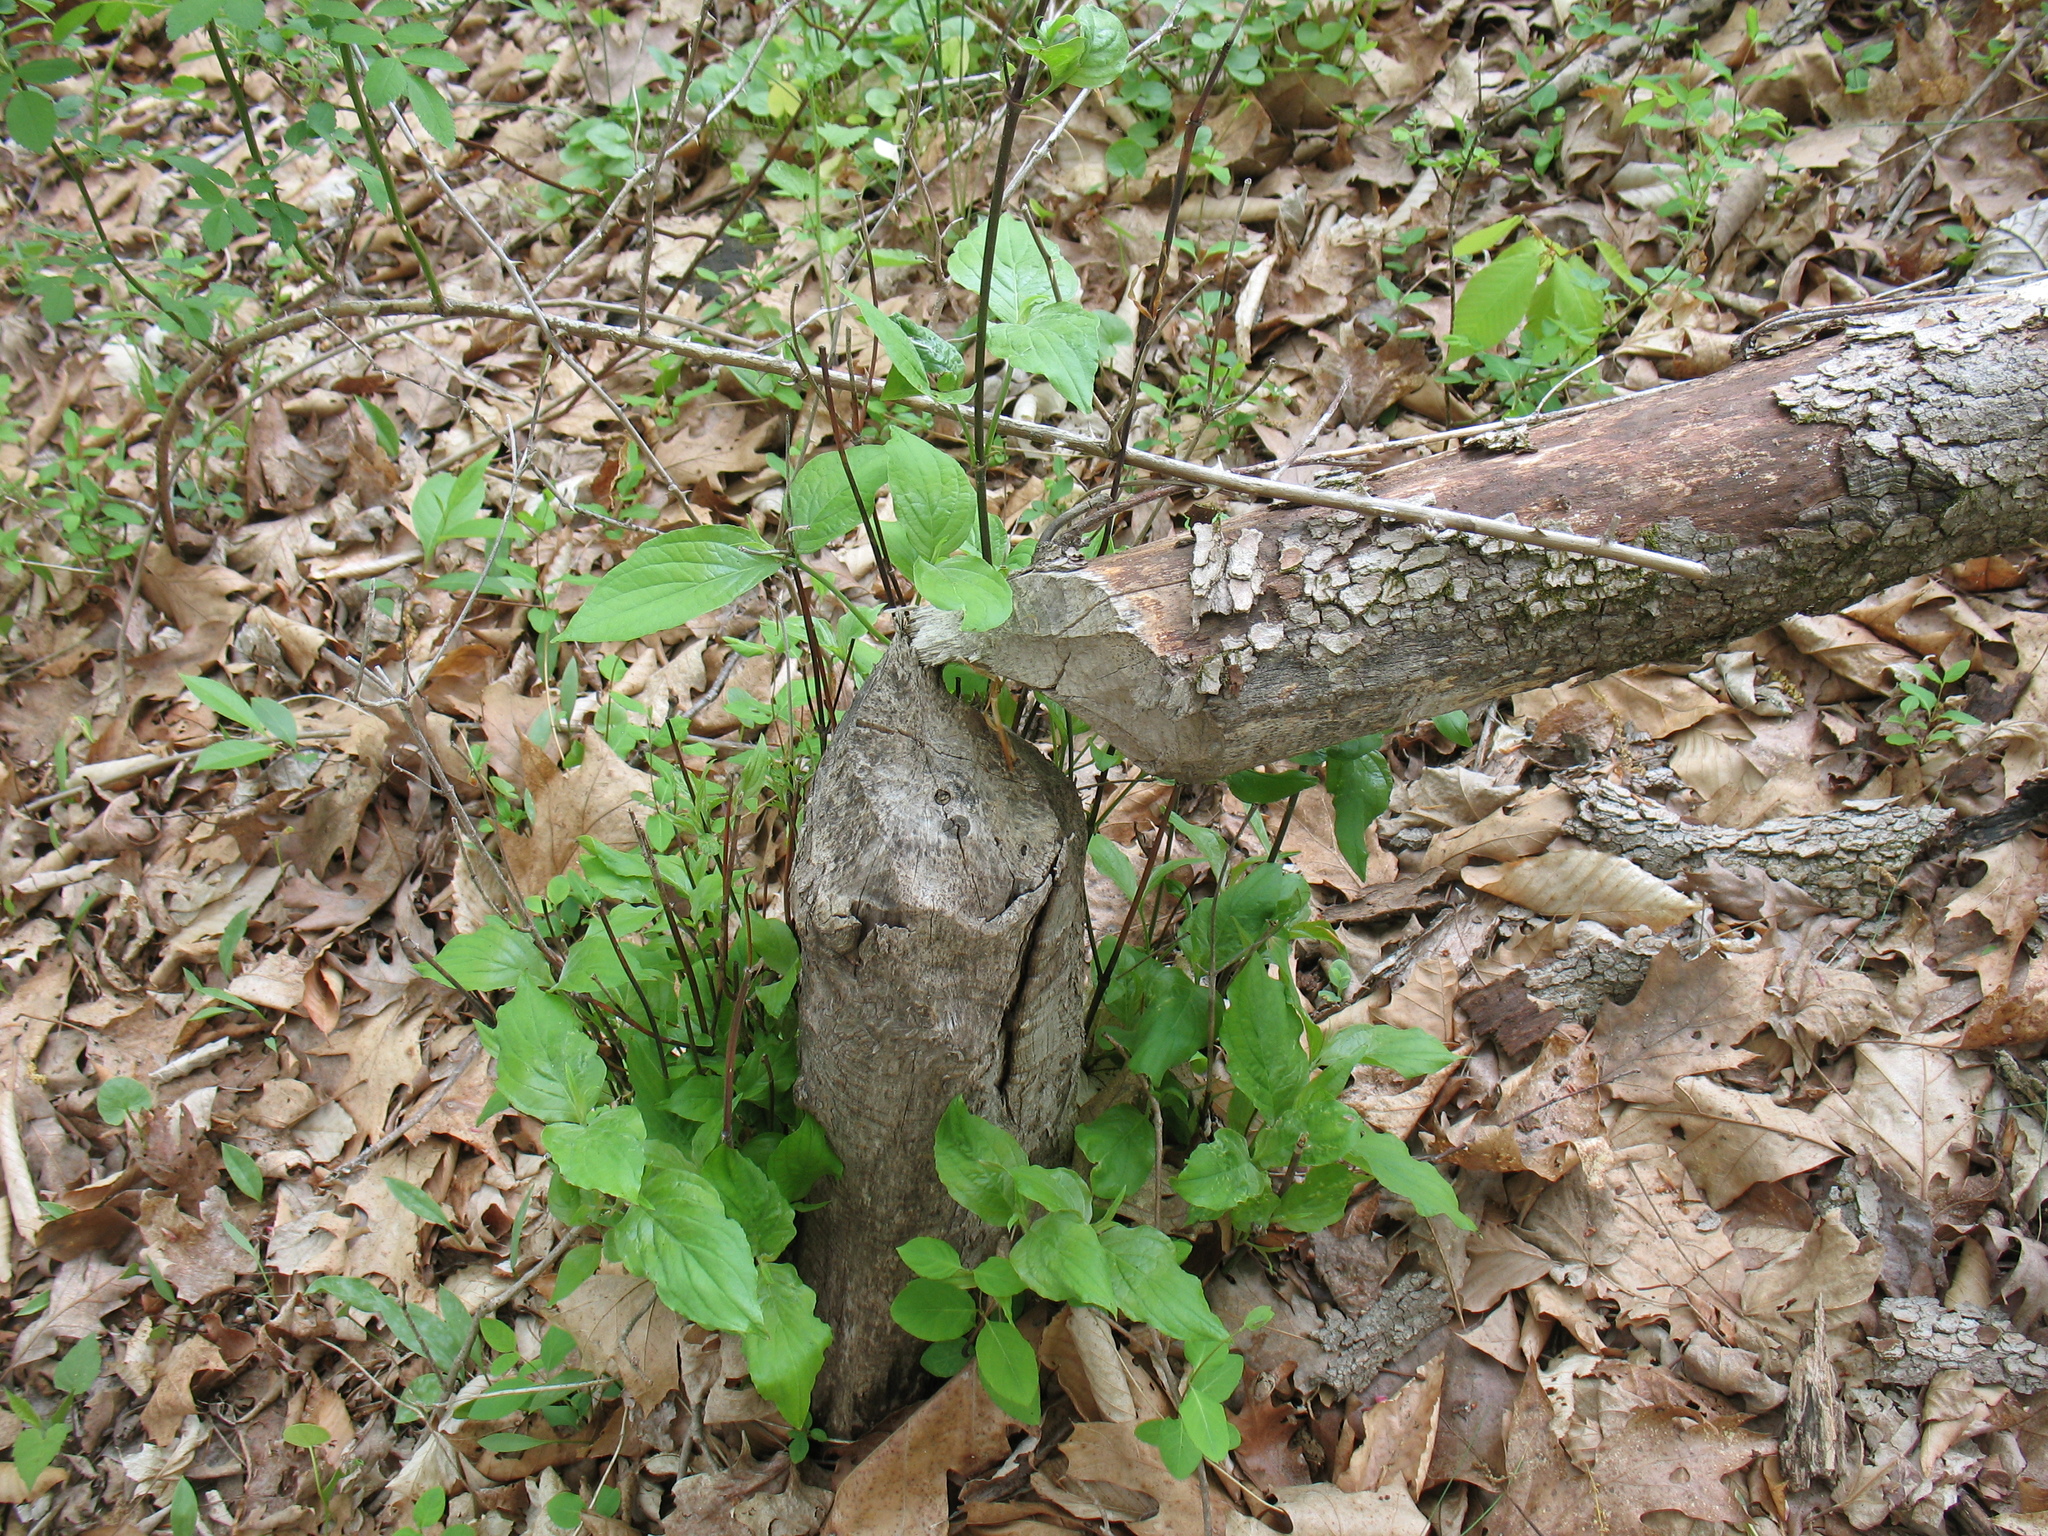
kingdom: Animalia
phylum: Chordata
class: Mammalia
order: Rodentia
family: Castoridae
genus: Castor
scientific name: Castor canadensis
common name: American beaver
